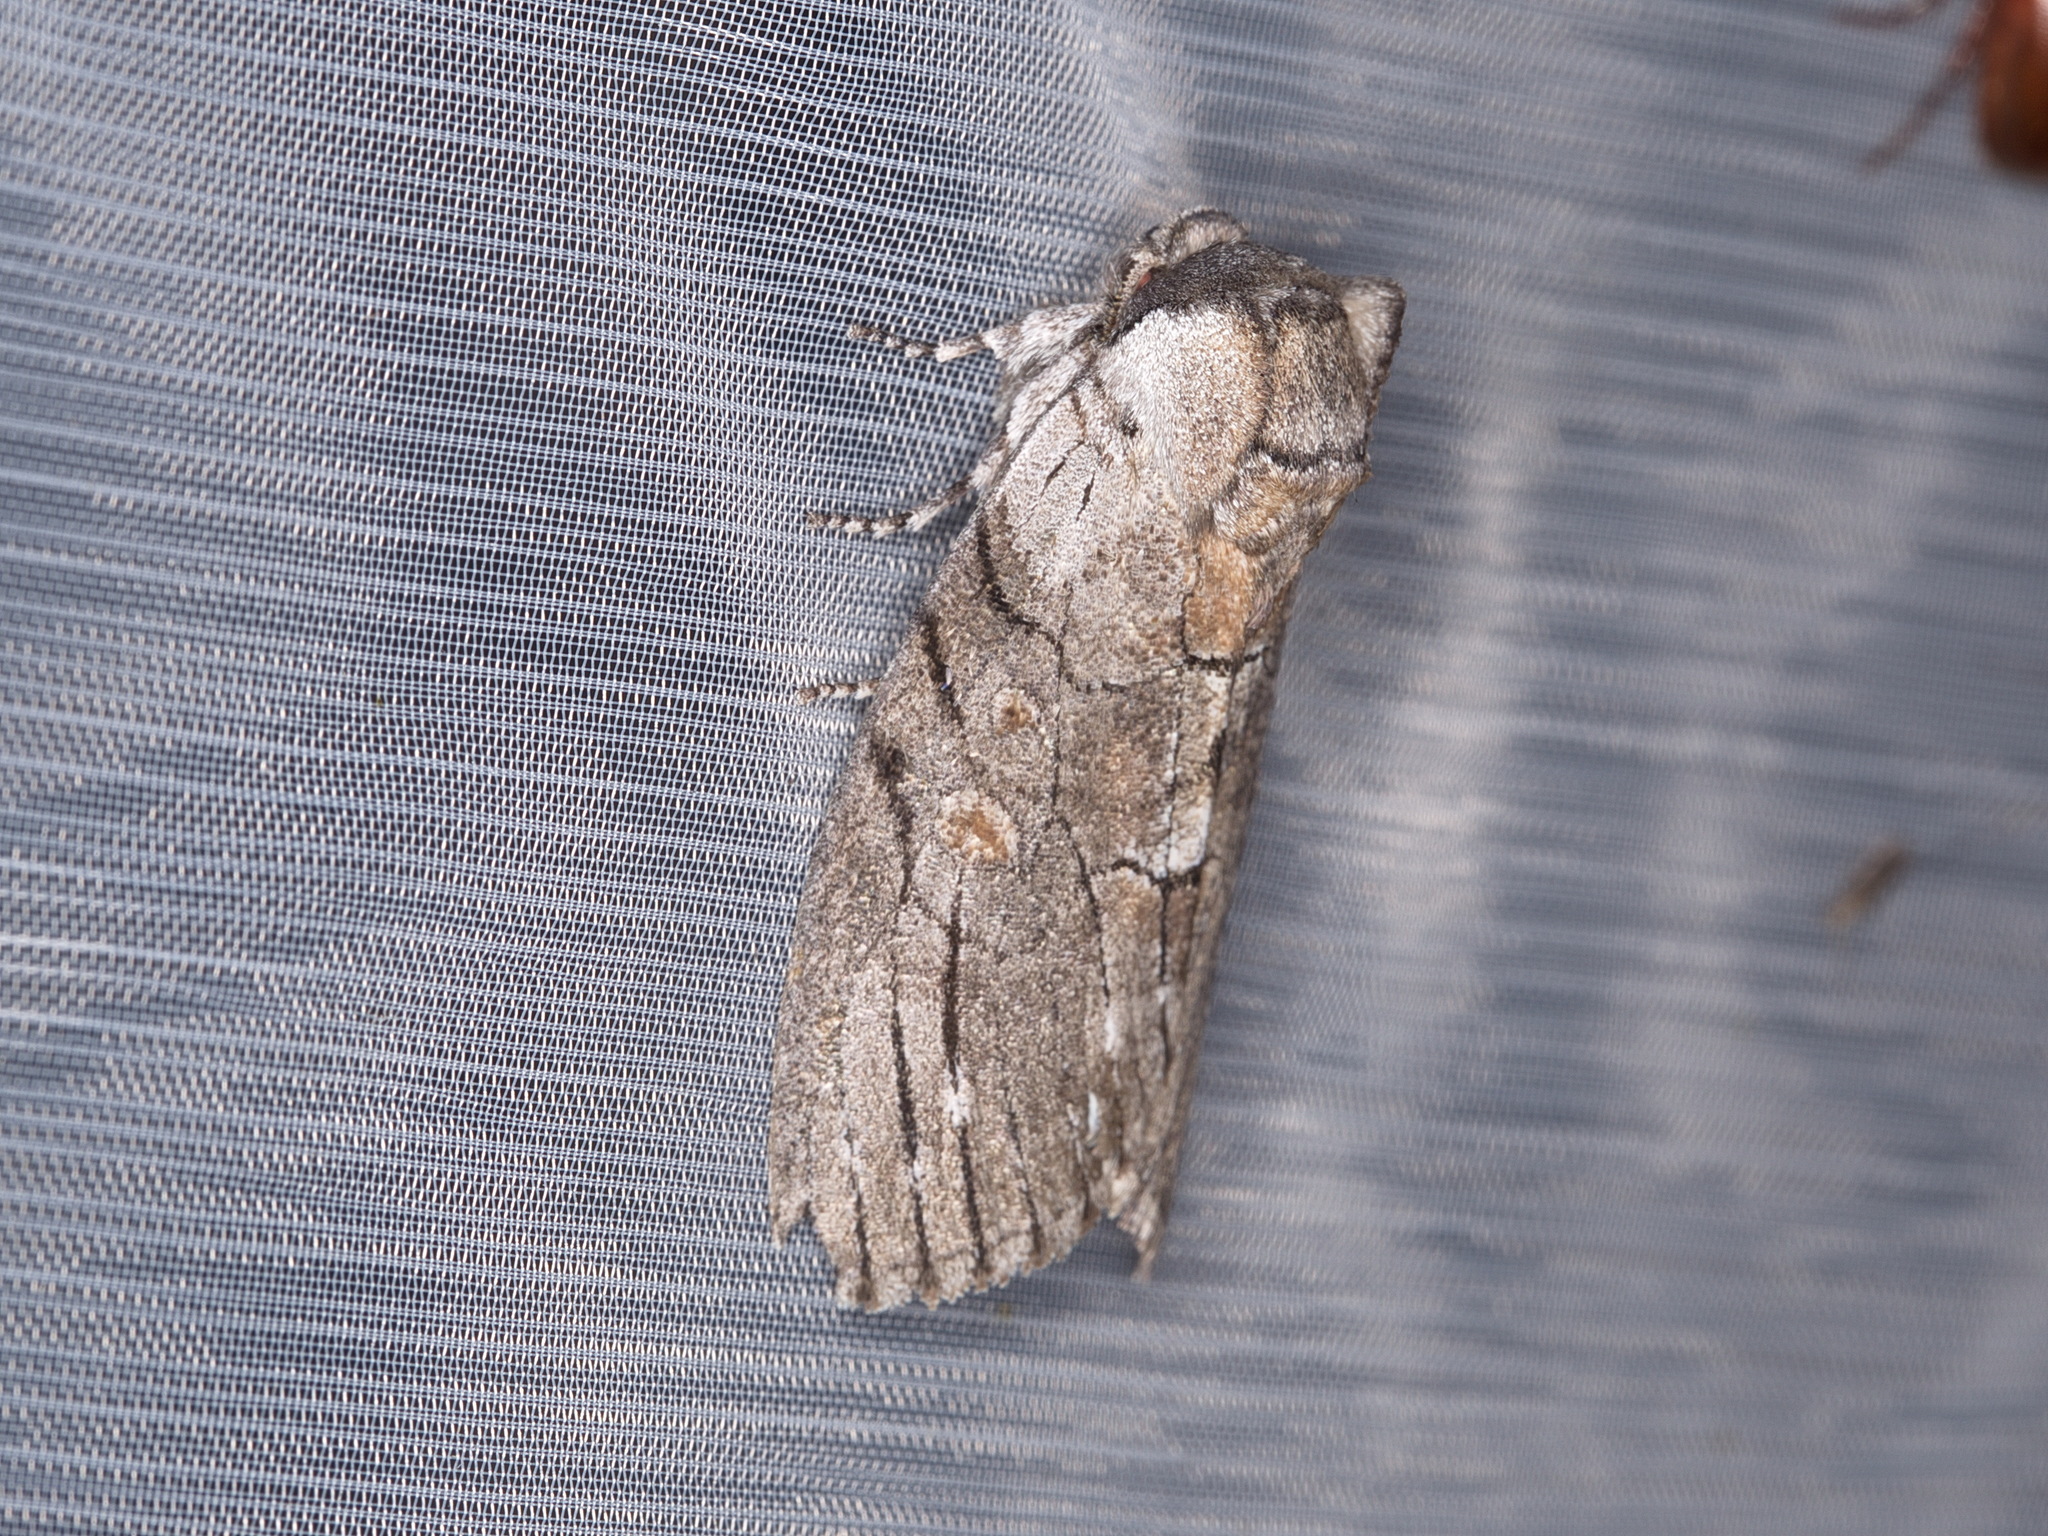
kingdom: Animalia
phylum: Arthropoda
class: Insecta
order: Lepidoptera
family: Oenosandridae
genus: Discophlebia
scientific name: Discophlebia catocalina
